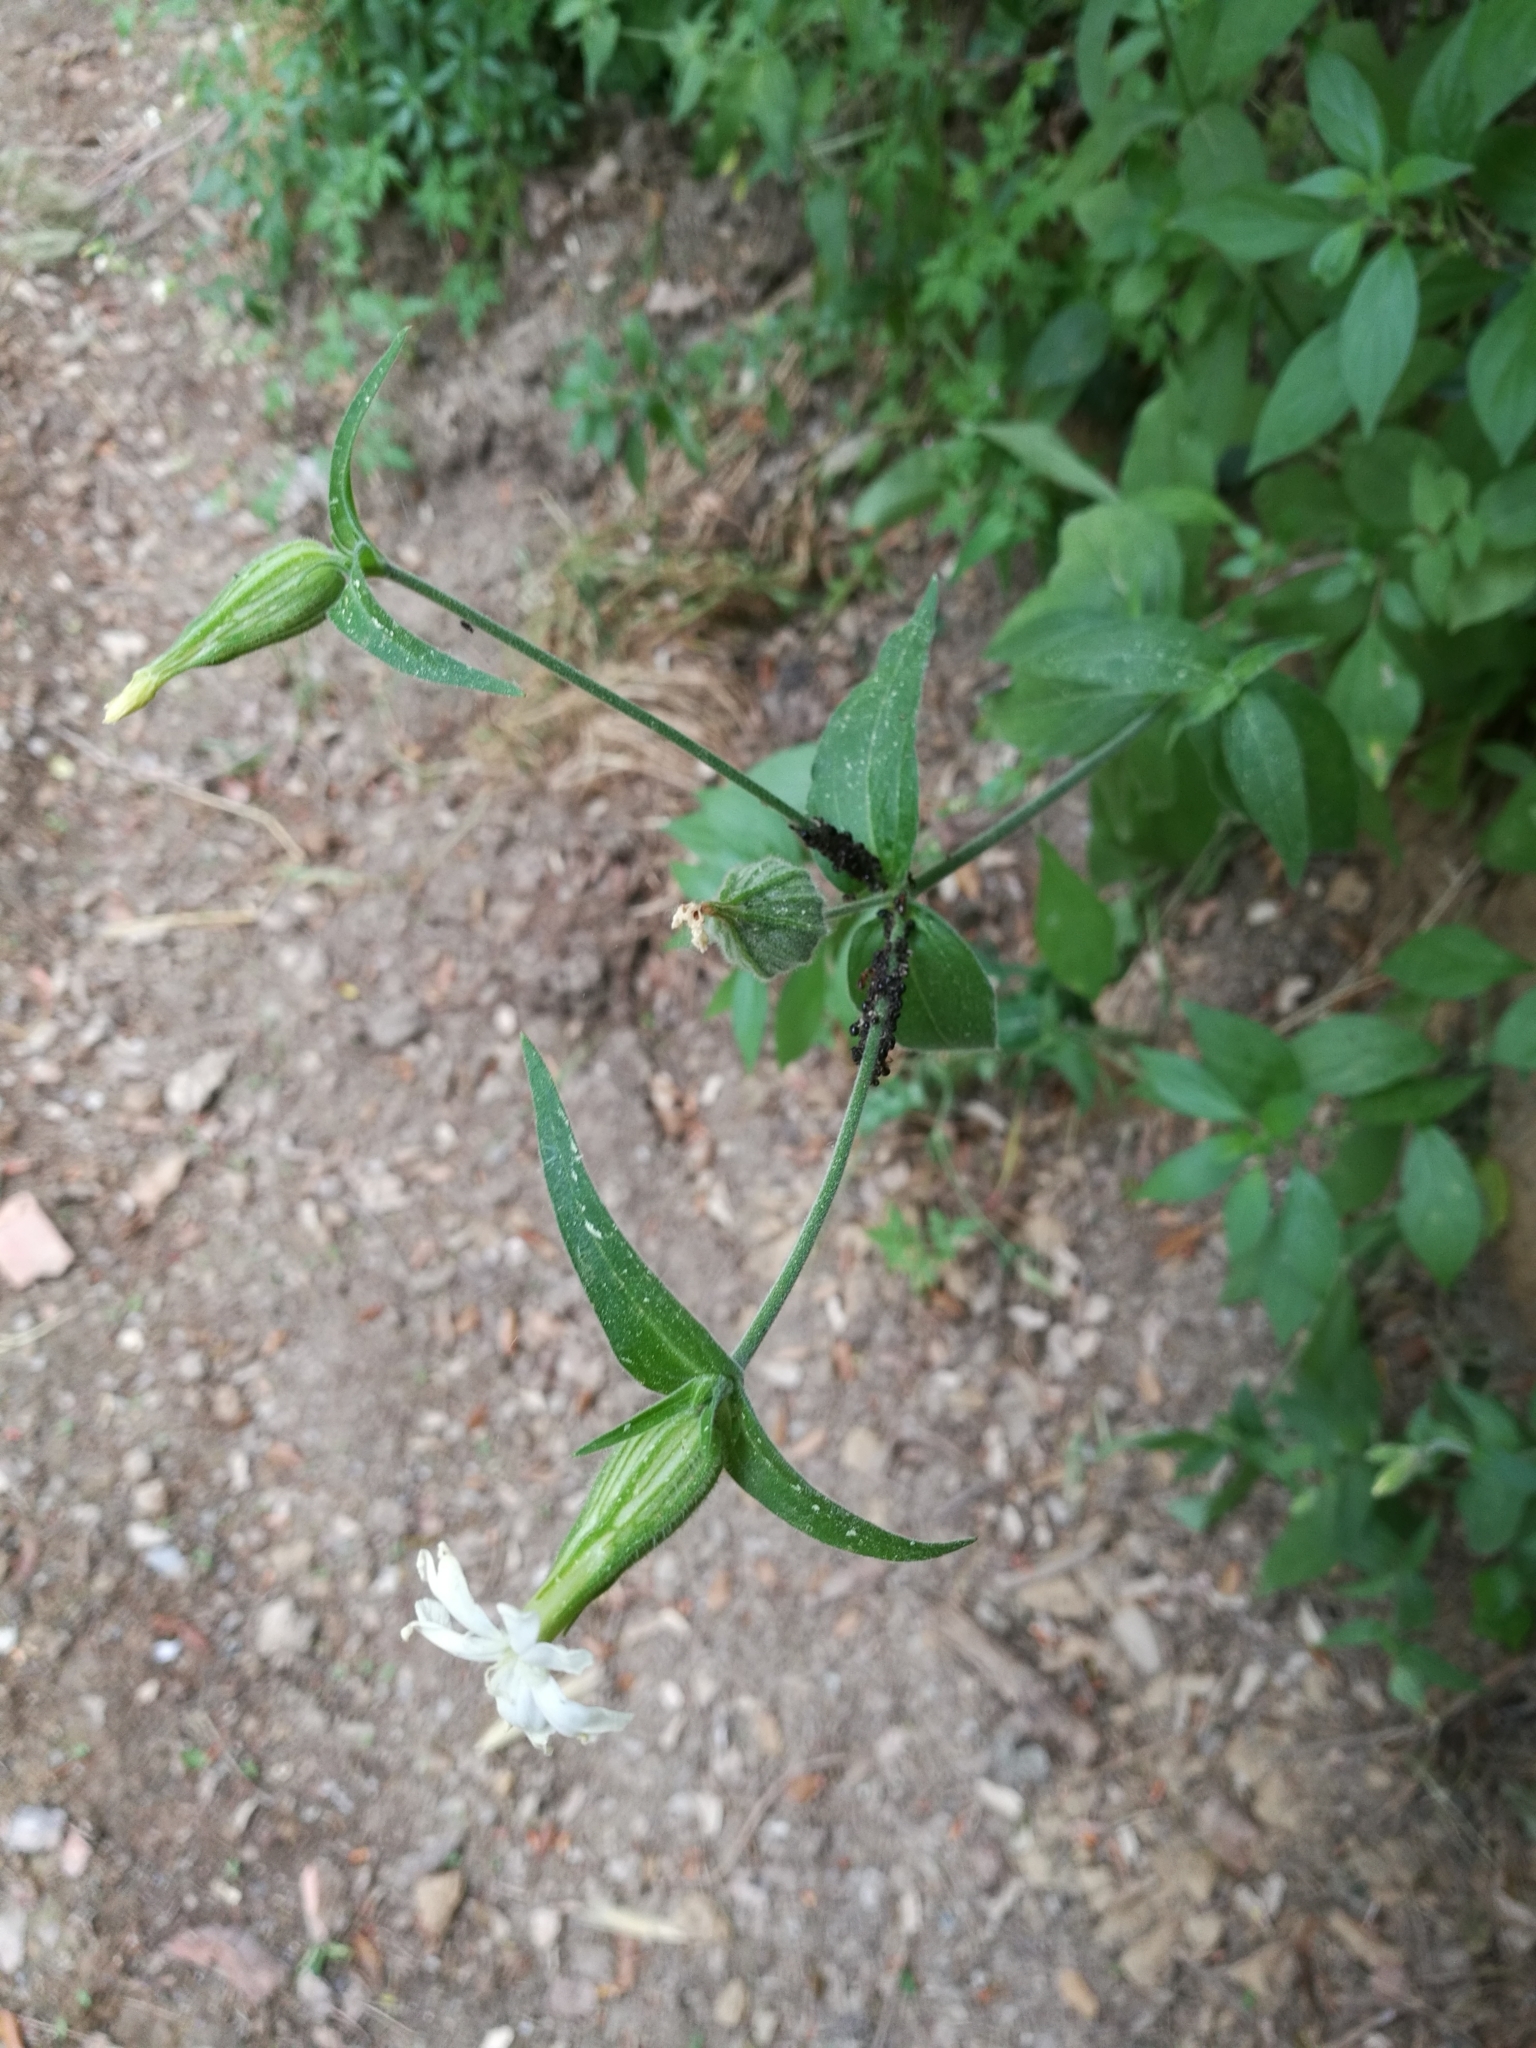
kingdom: Plantae
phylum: Tracheophyta
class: Magnoliopsida
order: Caryophyllales
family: Caryophyllaceae
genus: Silene
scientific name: Silene latifolia
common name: White campion
